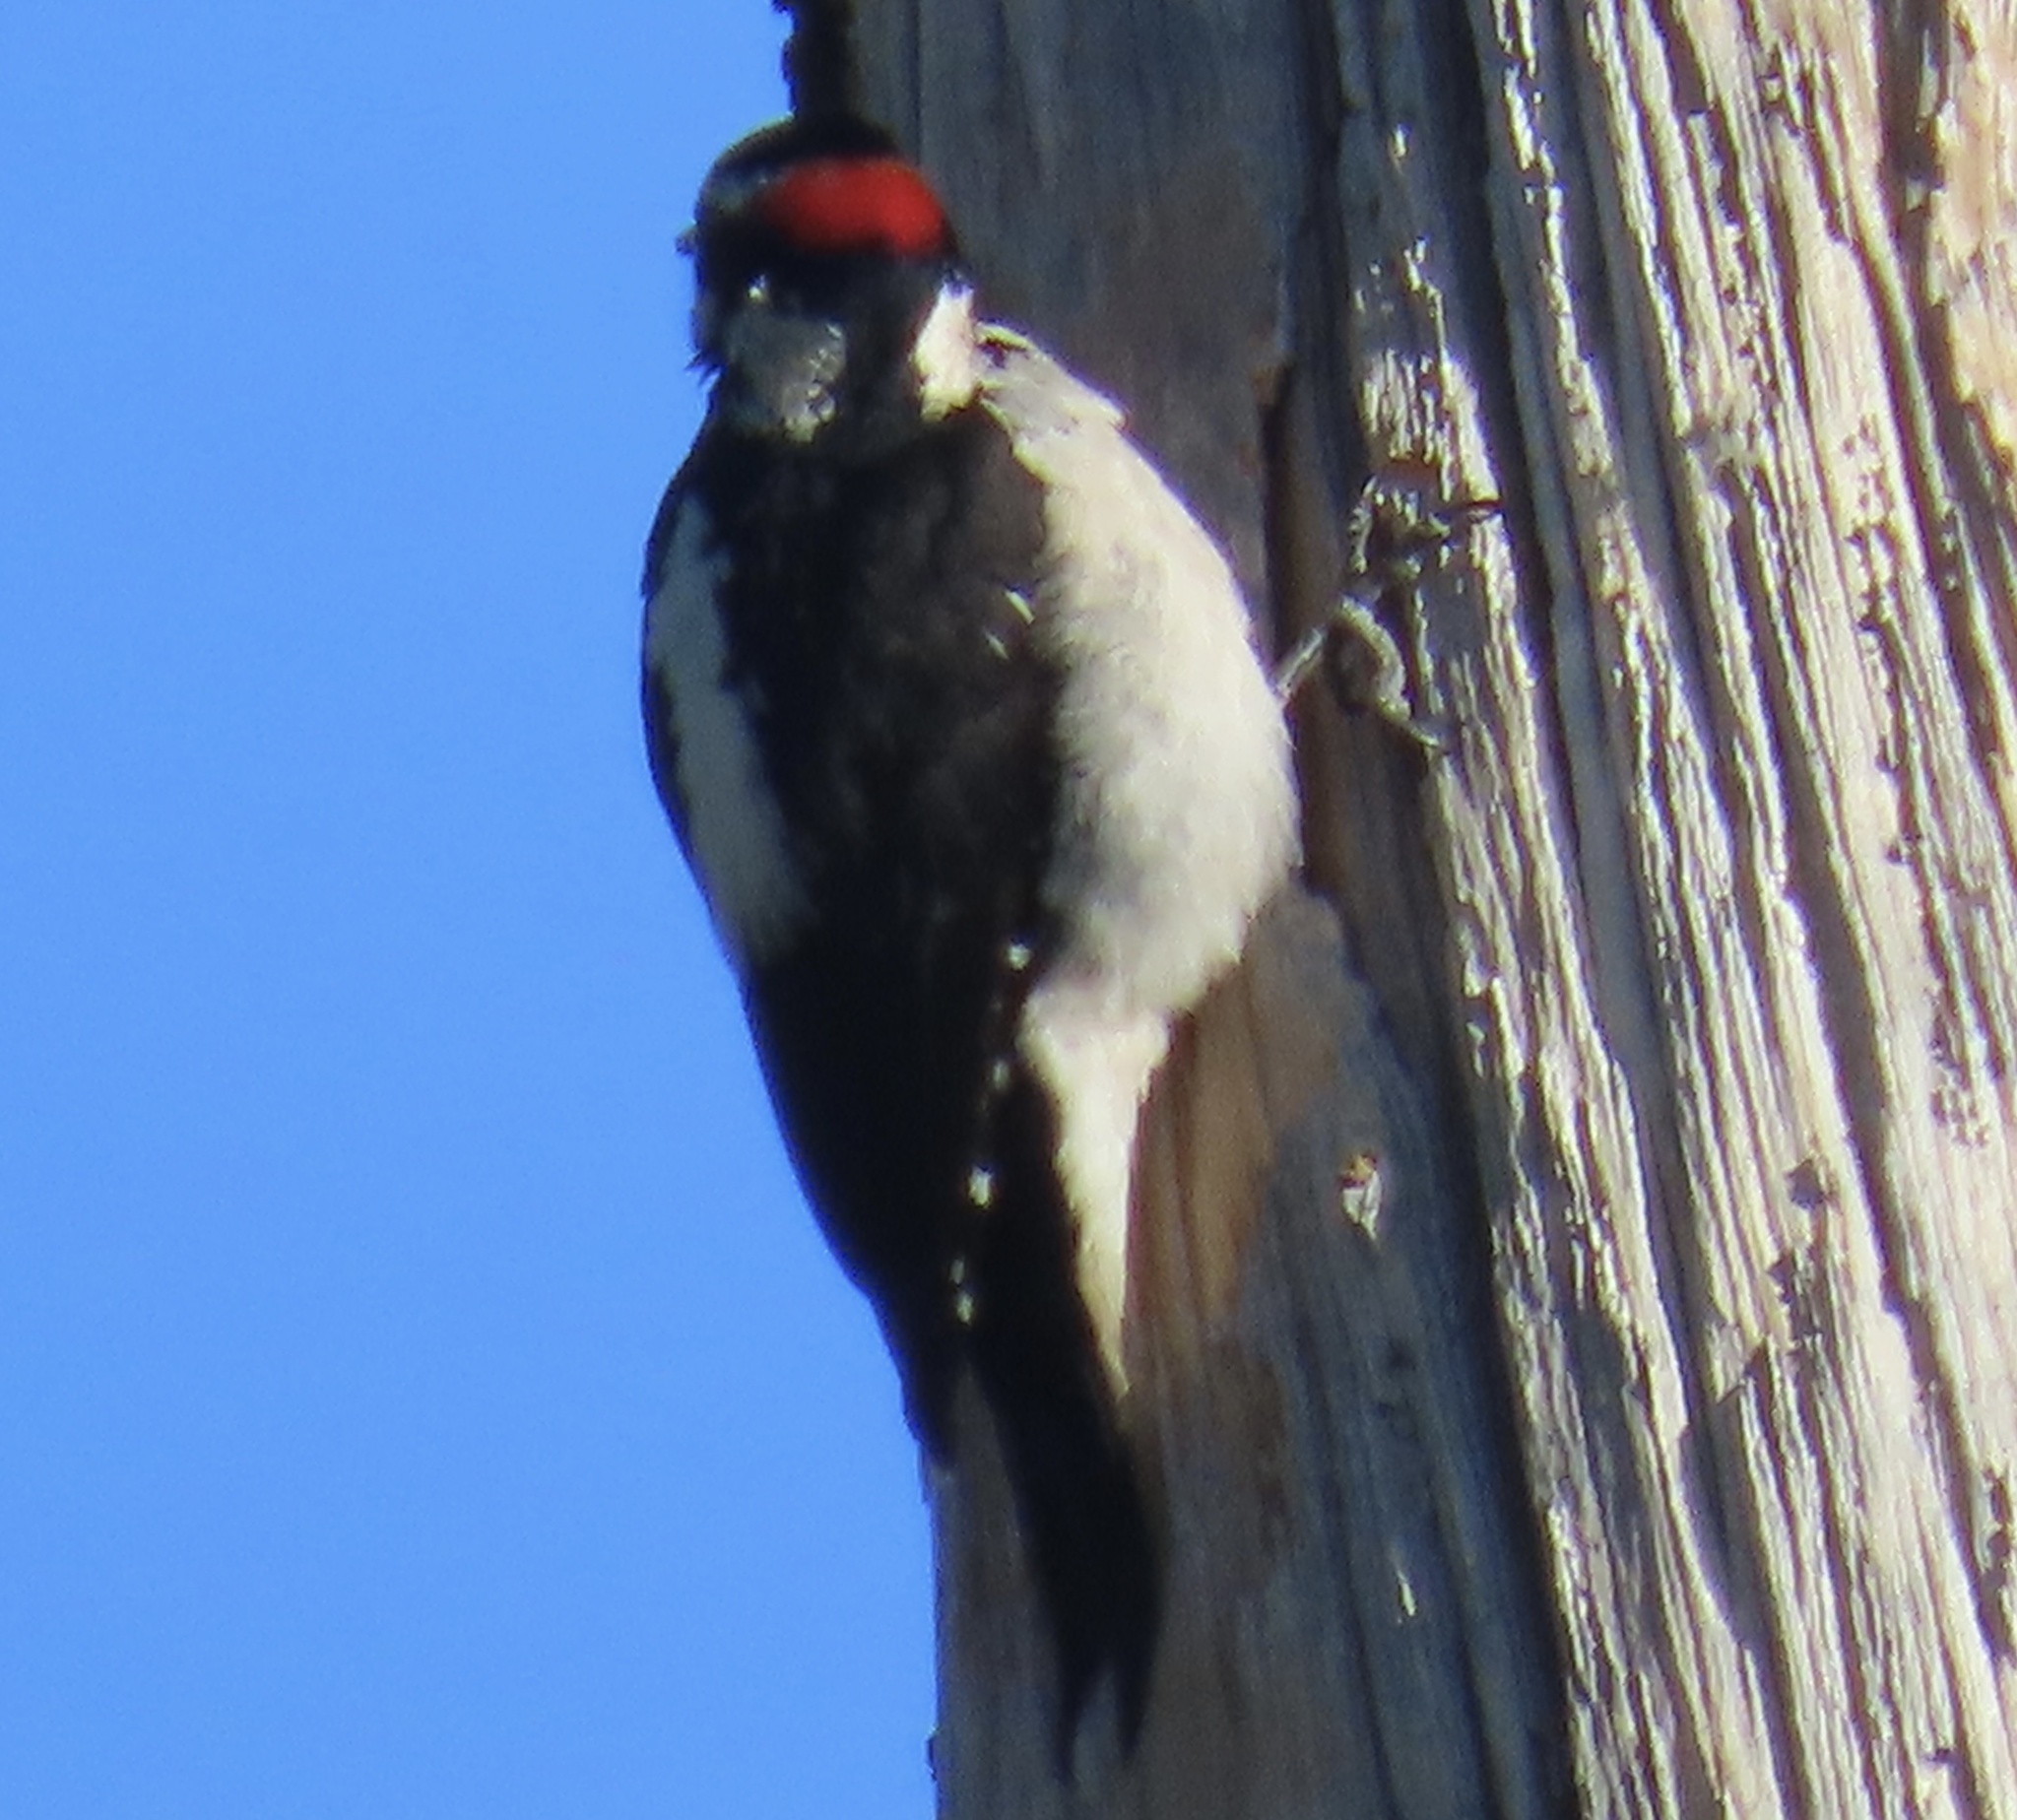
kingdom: Animalia
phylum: Chordata
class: Aves
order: Piciformes
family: Picidae
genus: Leuconotopicus
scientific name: Leuconotopicus villosus
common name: Hairy woodpecker
